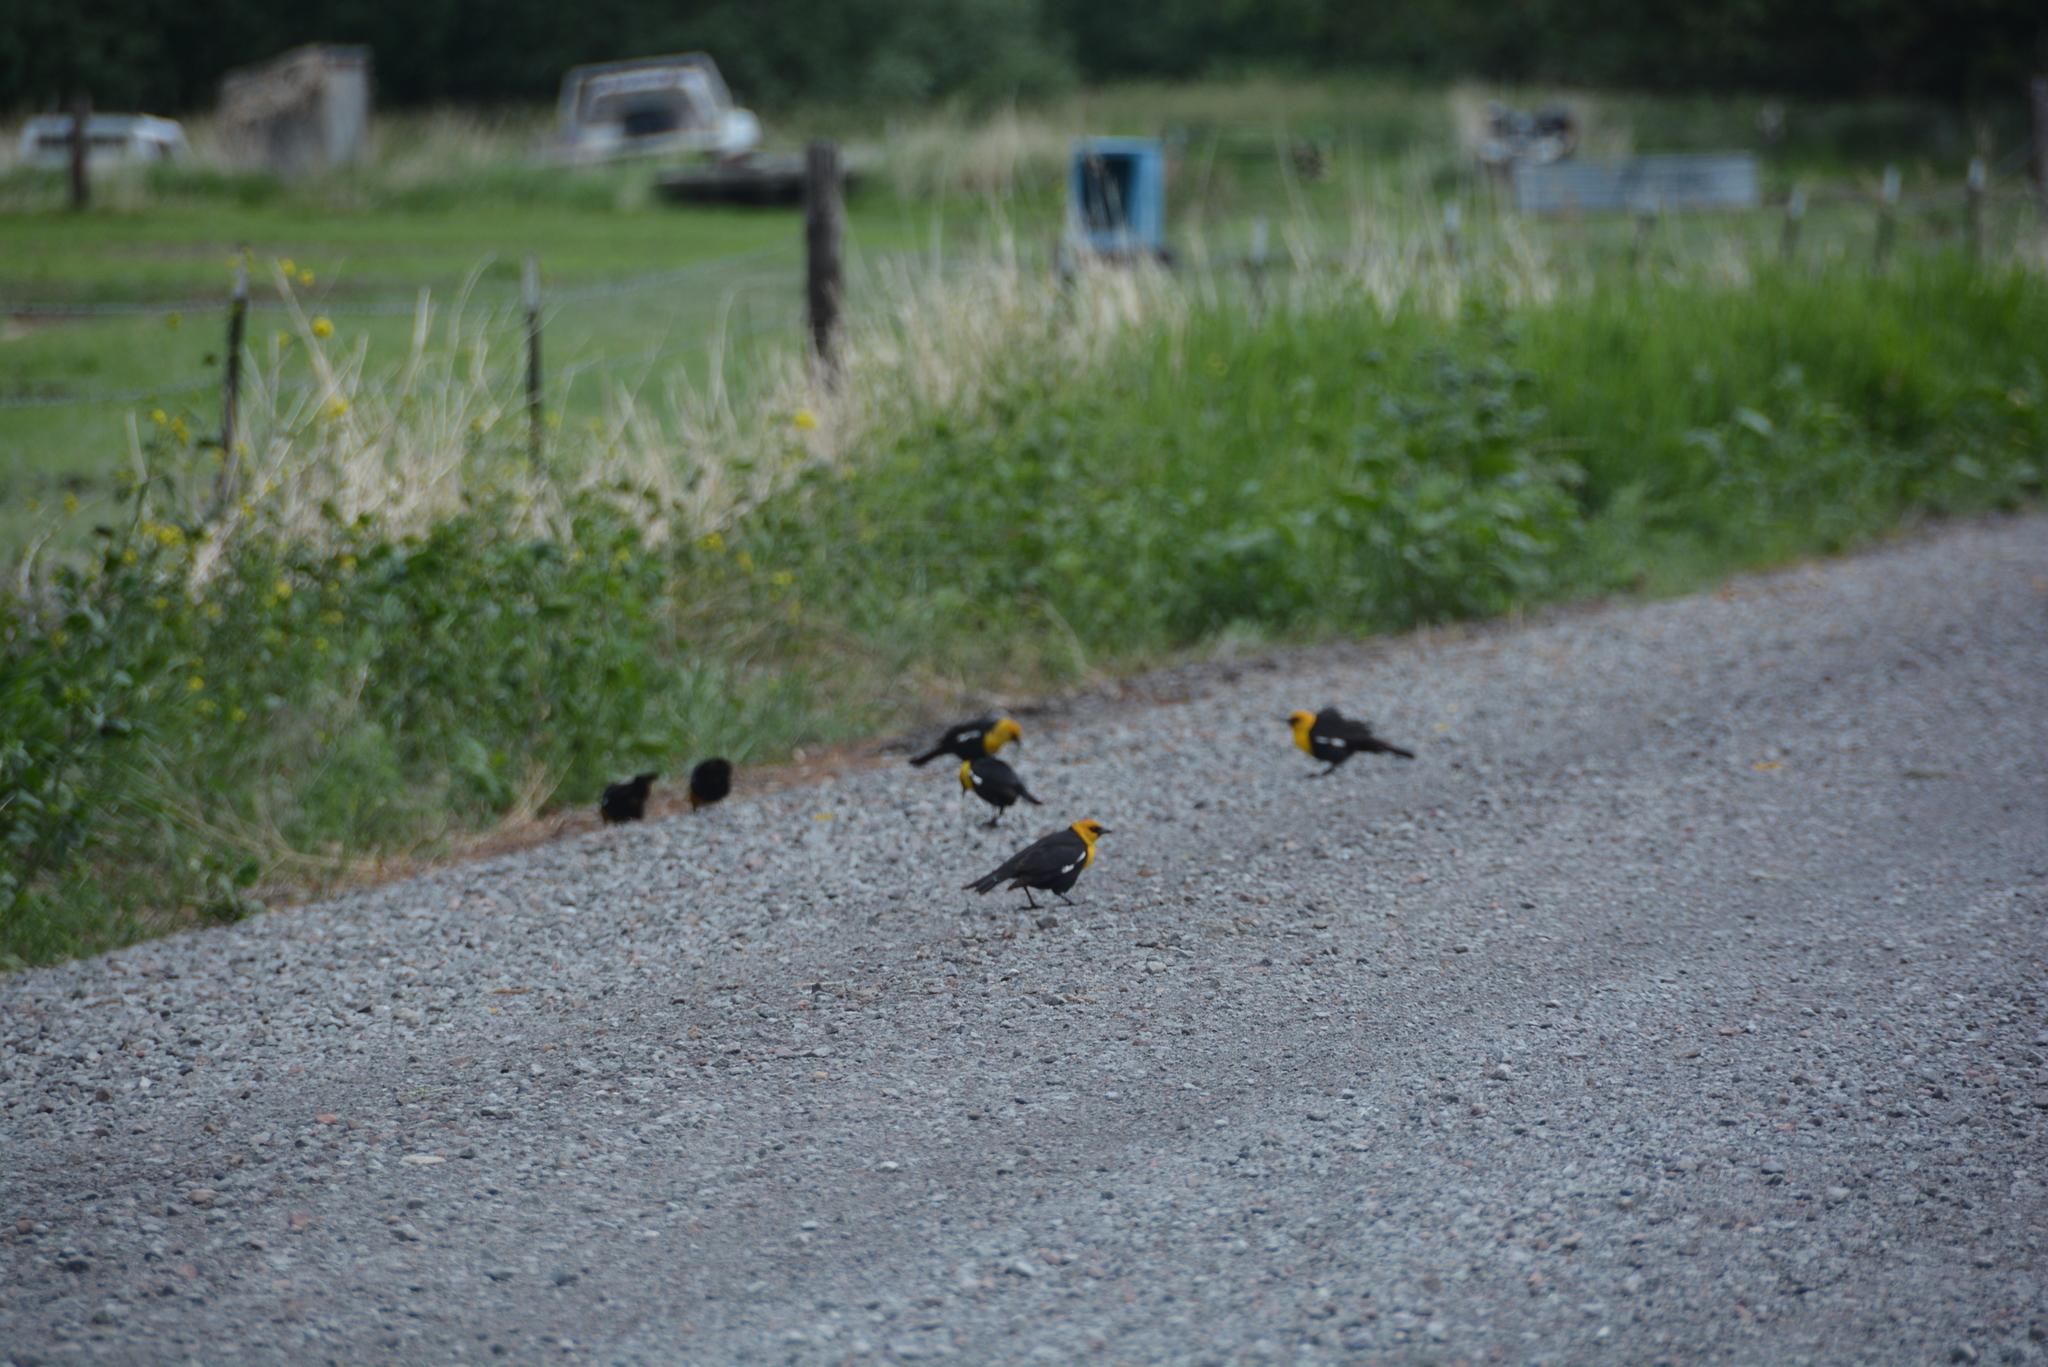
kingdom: Animalia
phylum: Chordata
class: Aves
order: Passeriformes
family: Icteridae
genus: Xanthocephalus
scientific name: Xanthocephalus xanthocephalus
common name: Yellow-headed blackbird
